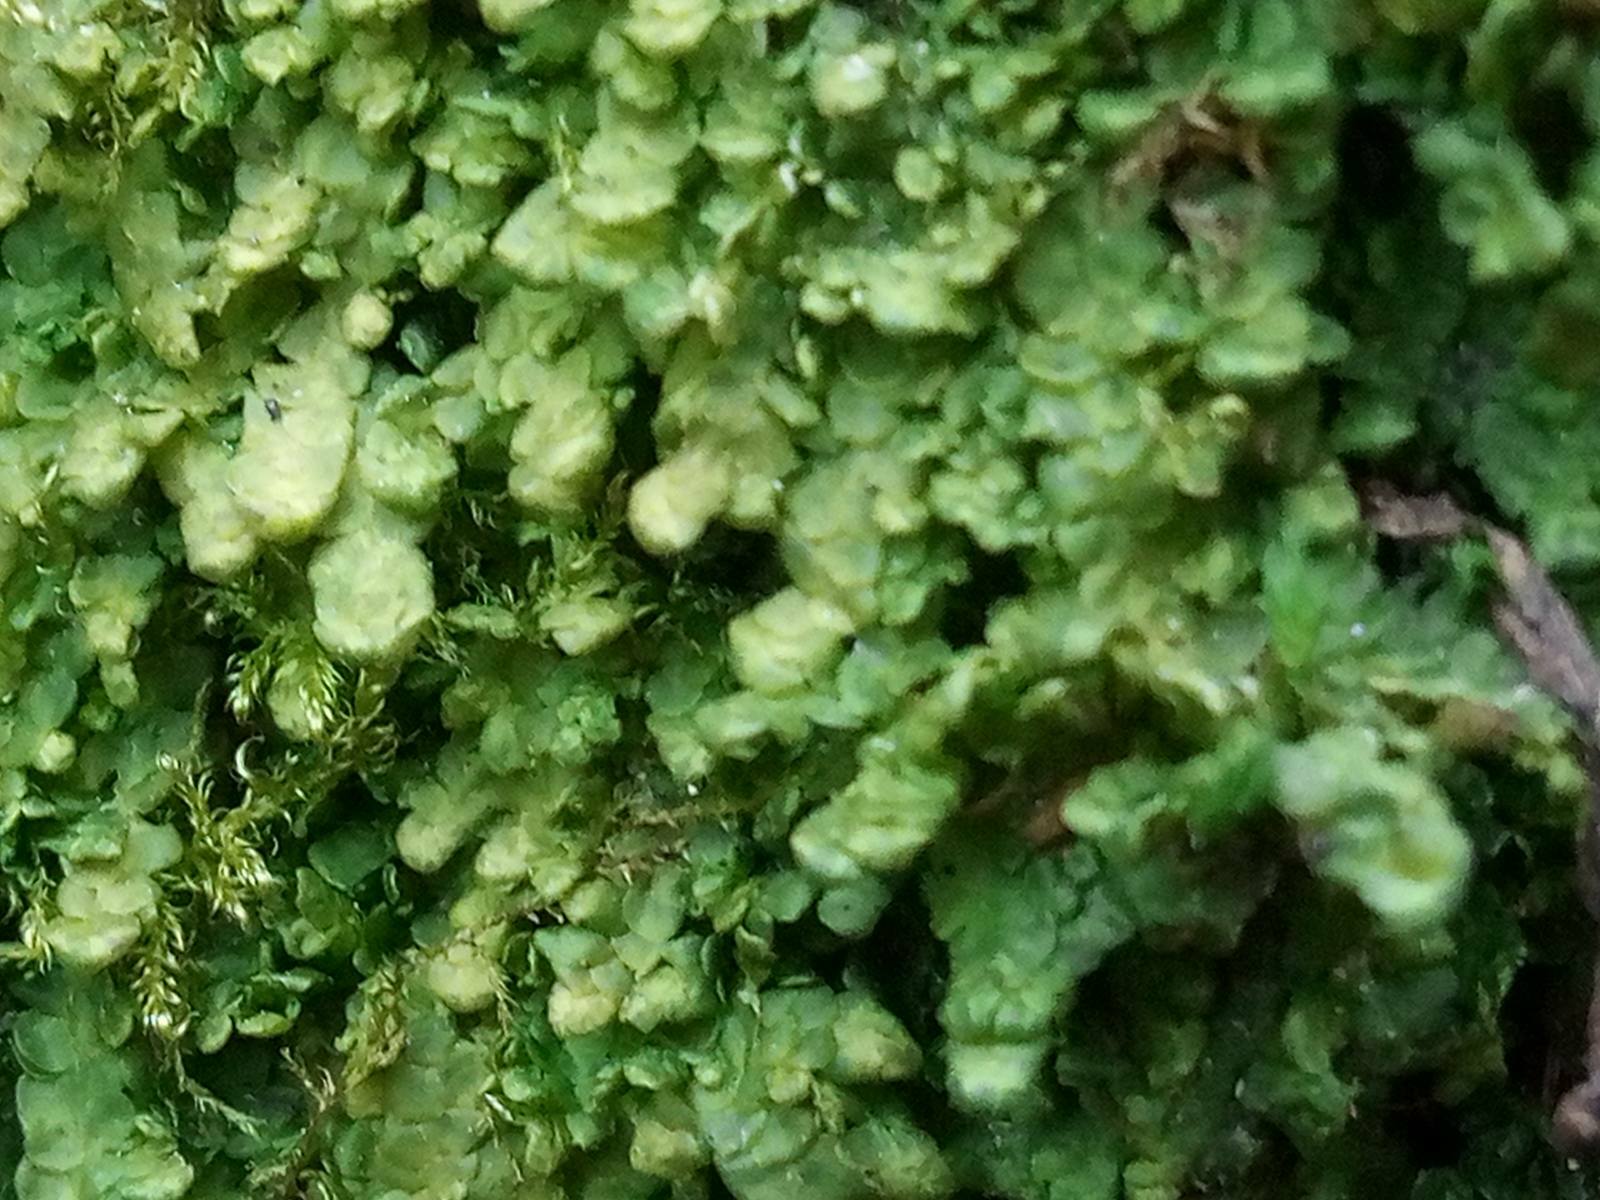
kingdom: Plantae
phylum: Marchantiophyta
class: Jungermanniopsida
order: Porellales
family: Radulaceae
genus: Radula
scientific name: Radula complanata
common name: Flat-leaved scalewort
